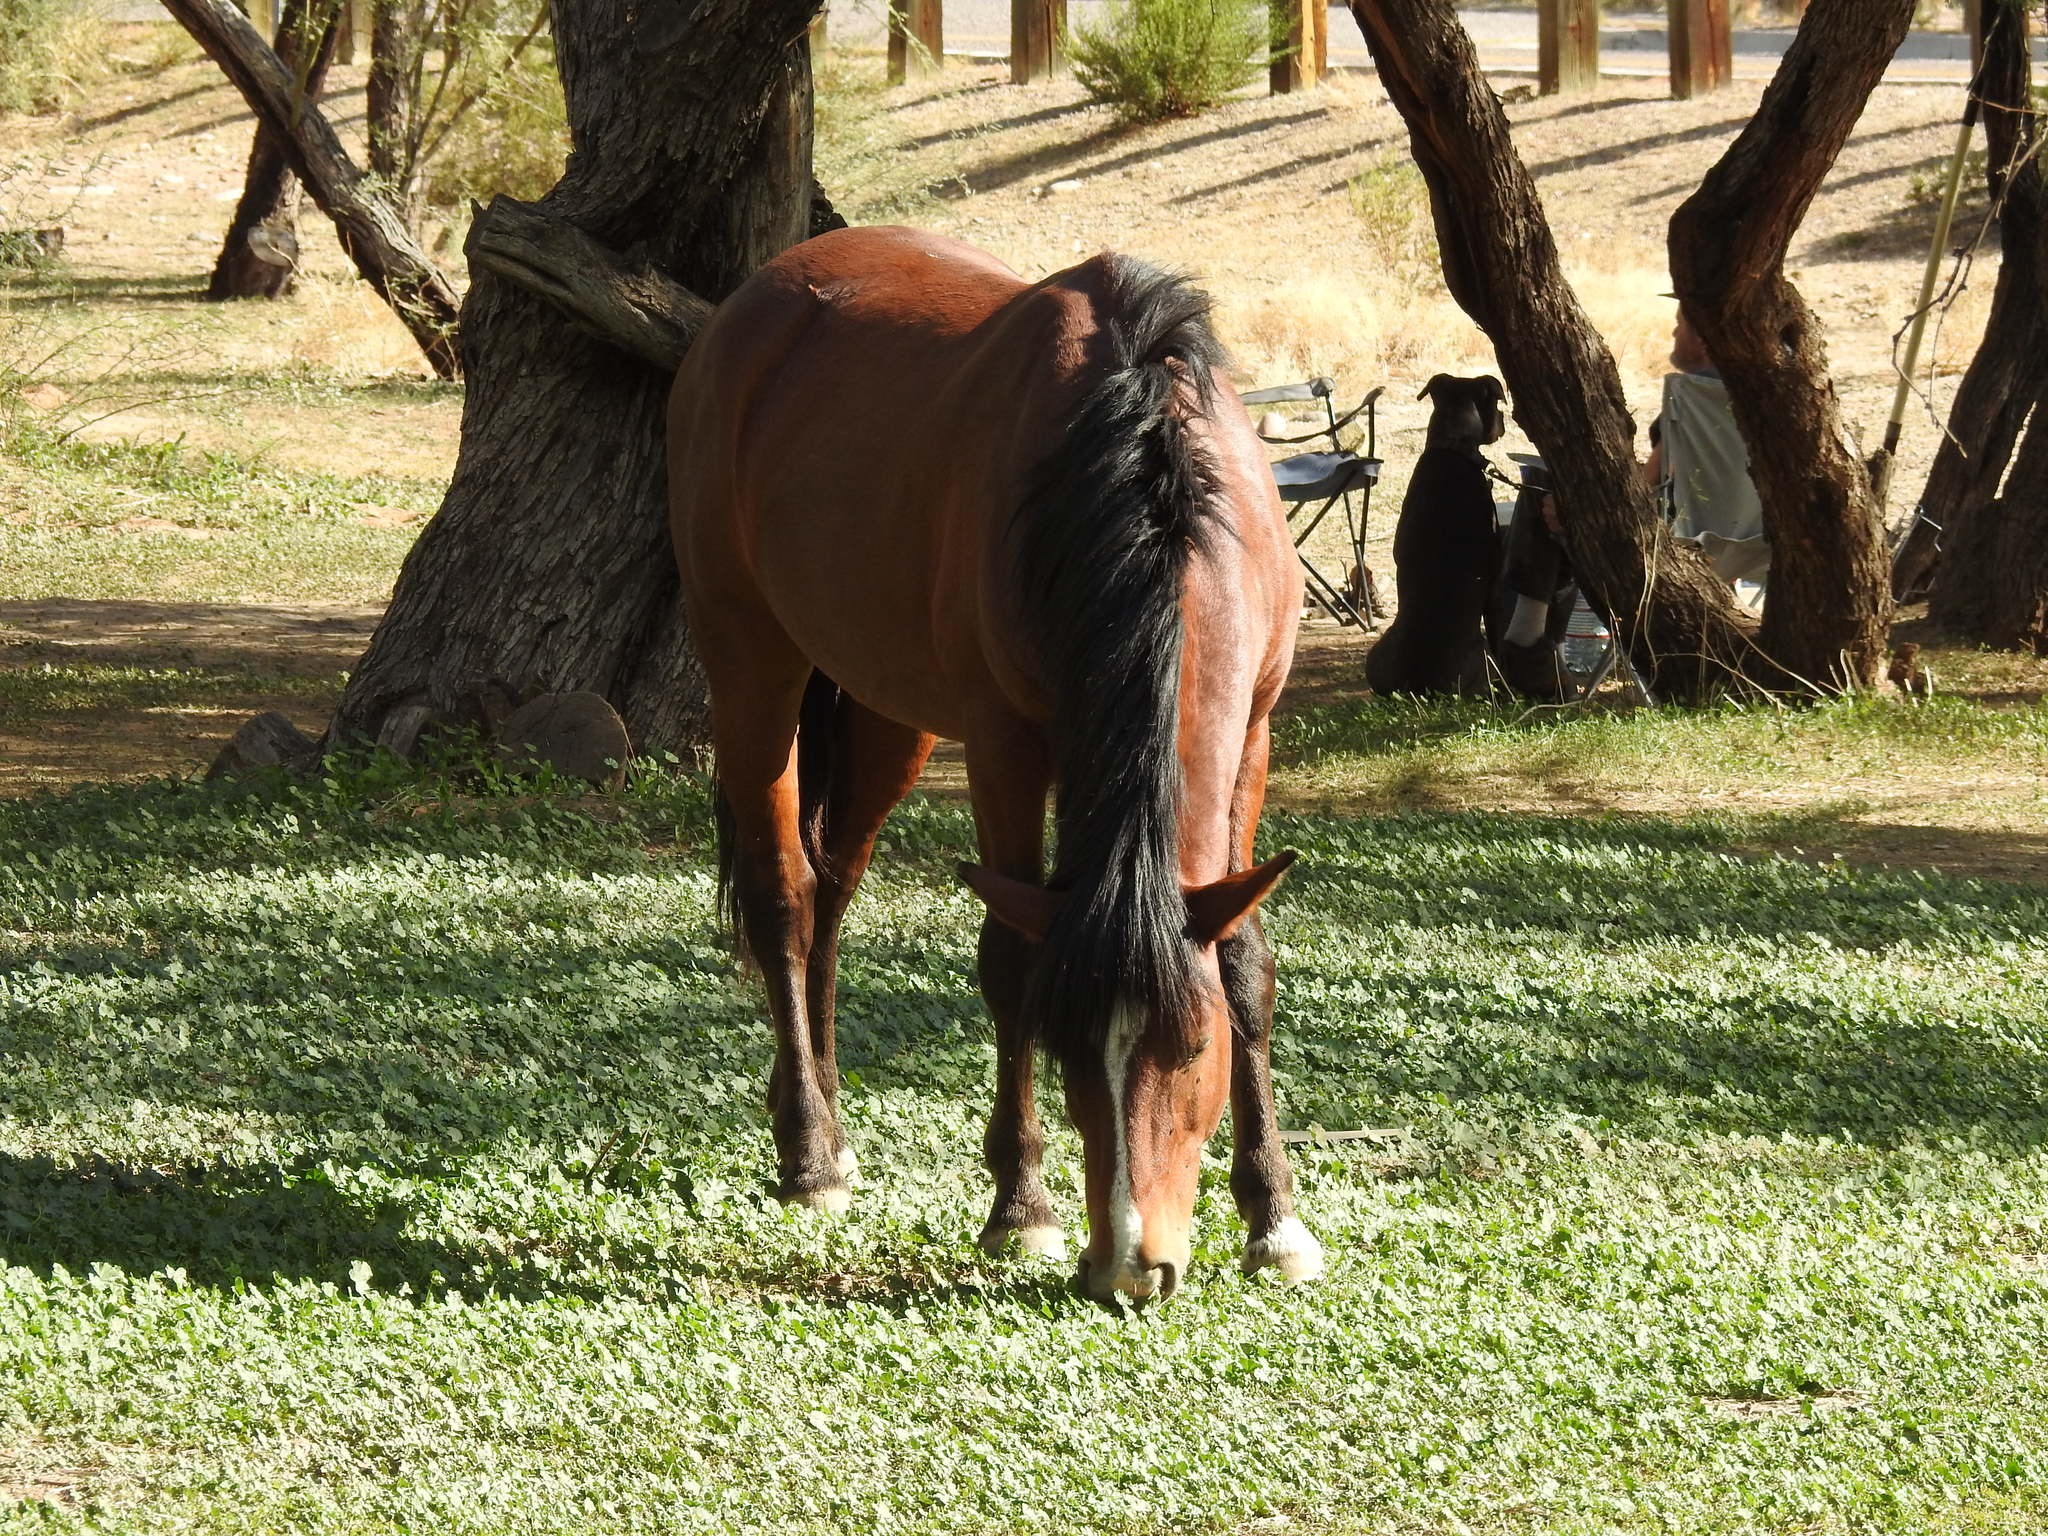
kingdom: Animalia
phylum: Chordata
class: Mammalia
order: Perissodactyla
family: Equidae
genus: Equus
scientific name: Equus caballus
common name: Horse
